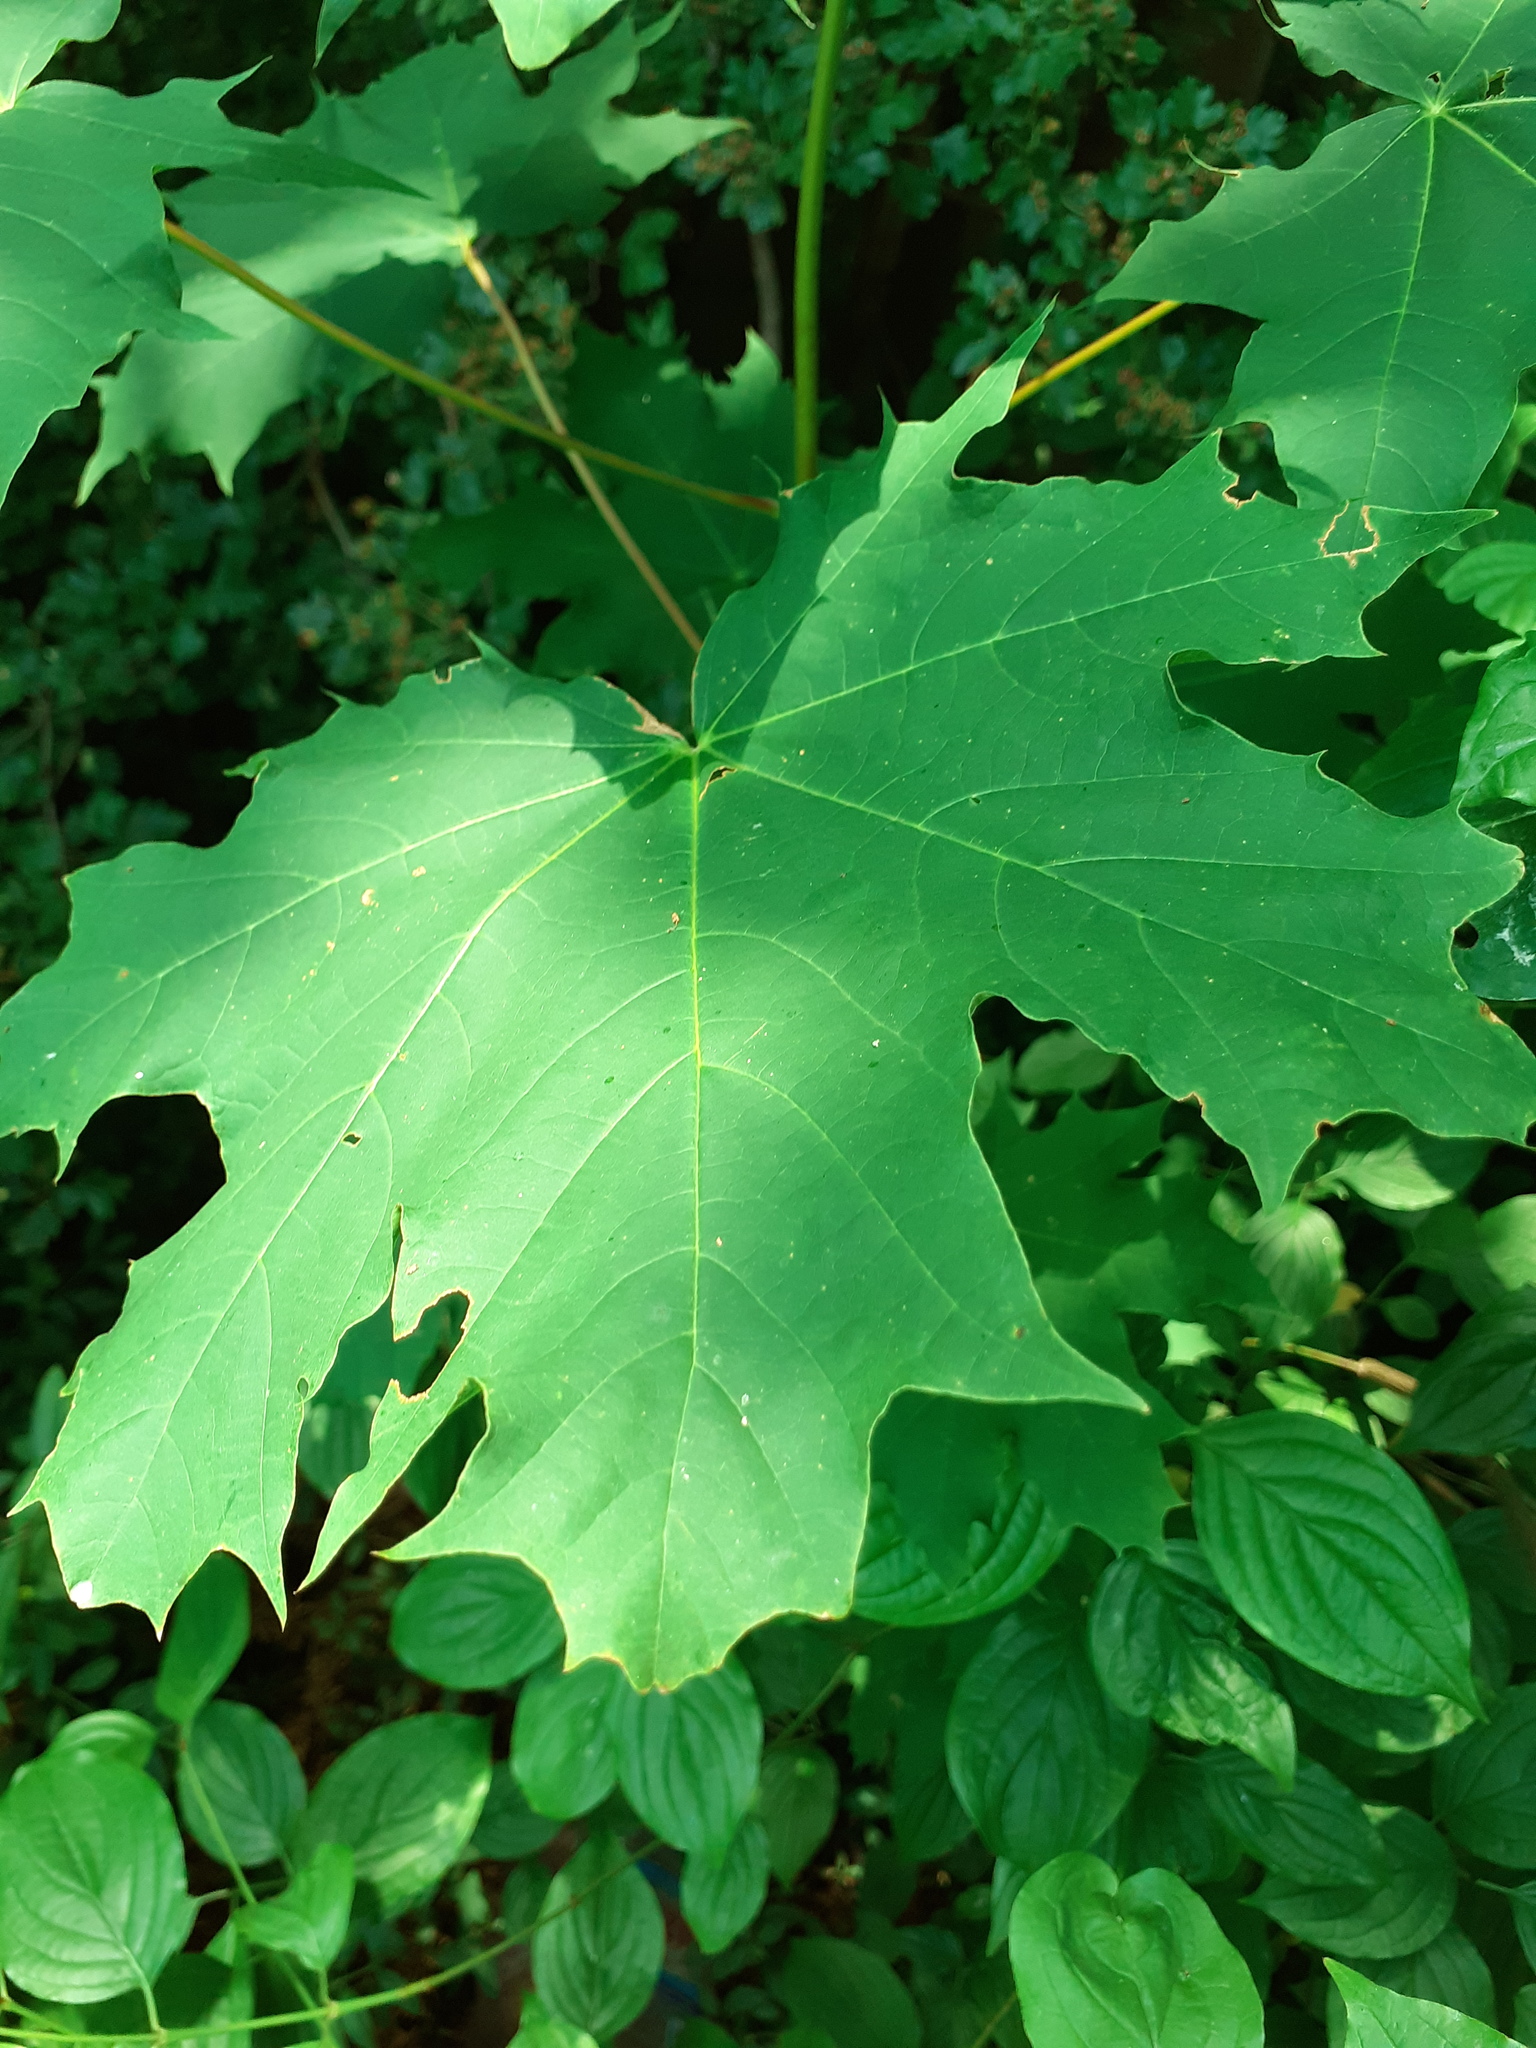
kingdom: Plantae
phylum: Tracheophyta
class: Magnoliopsida
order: Sapindales
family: Sapindaceae
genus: Acer
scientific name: Acer platanoides
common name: Norway maple
